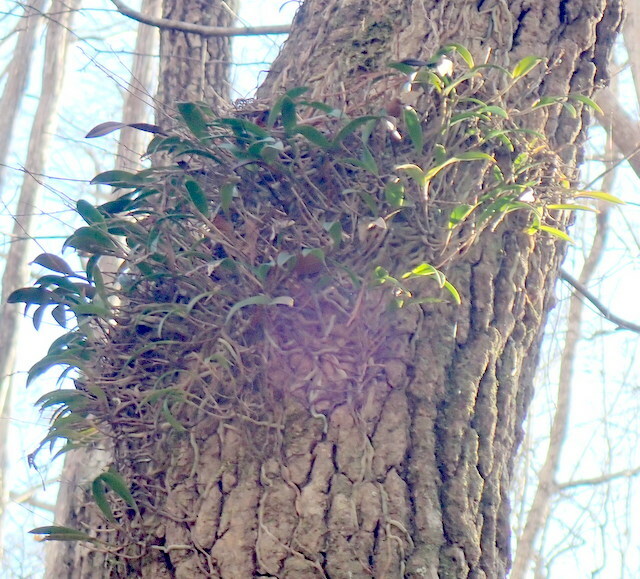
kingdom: Plantae
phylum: Tracheophyta
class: Liliopsida
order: Asparagales
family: Orchidaceae
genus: Epidendrum
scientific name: Epidendrum conopseum
